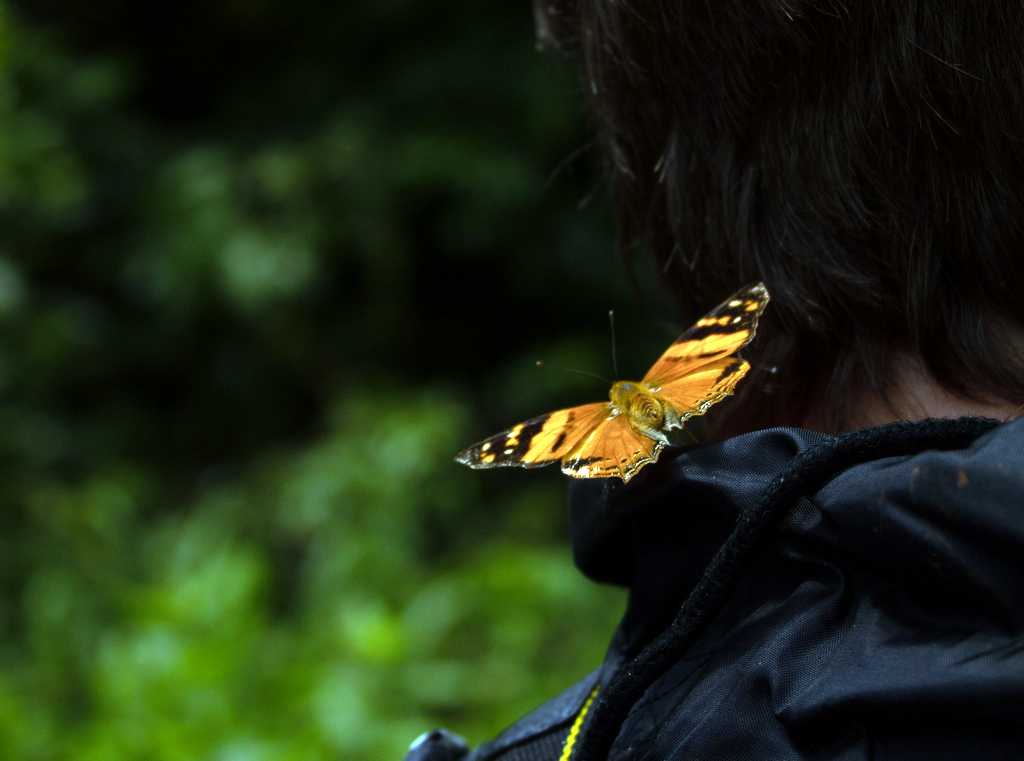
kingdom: Animalia
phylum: Arthropoda
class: Insecta
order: Lepidoptera
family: Nymphalidae
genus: Hypanartia
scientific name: Hypanartia lethe
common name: Orange mapwing
